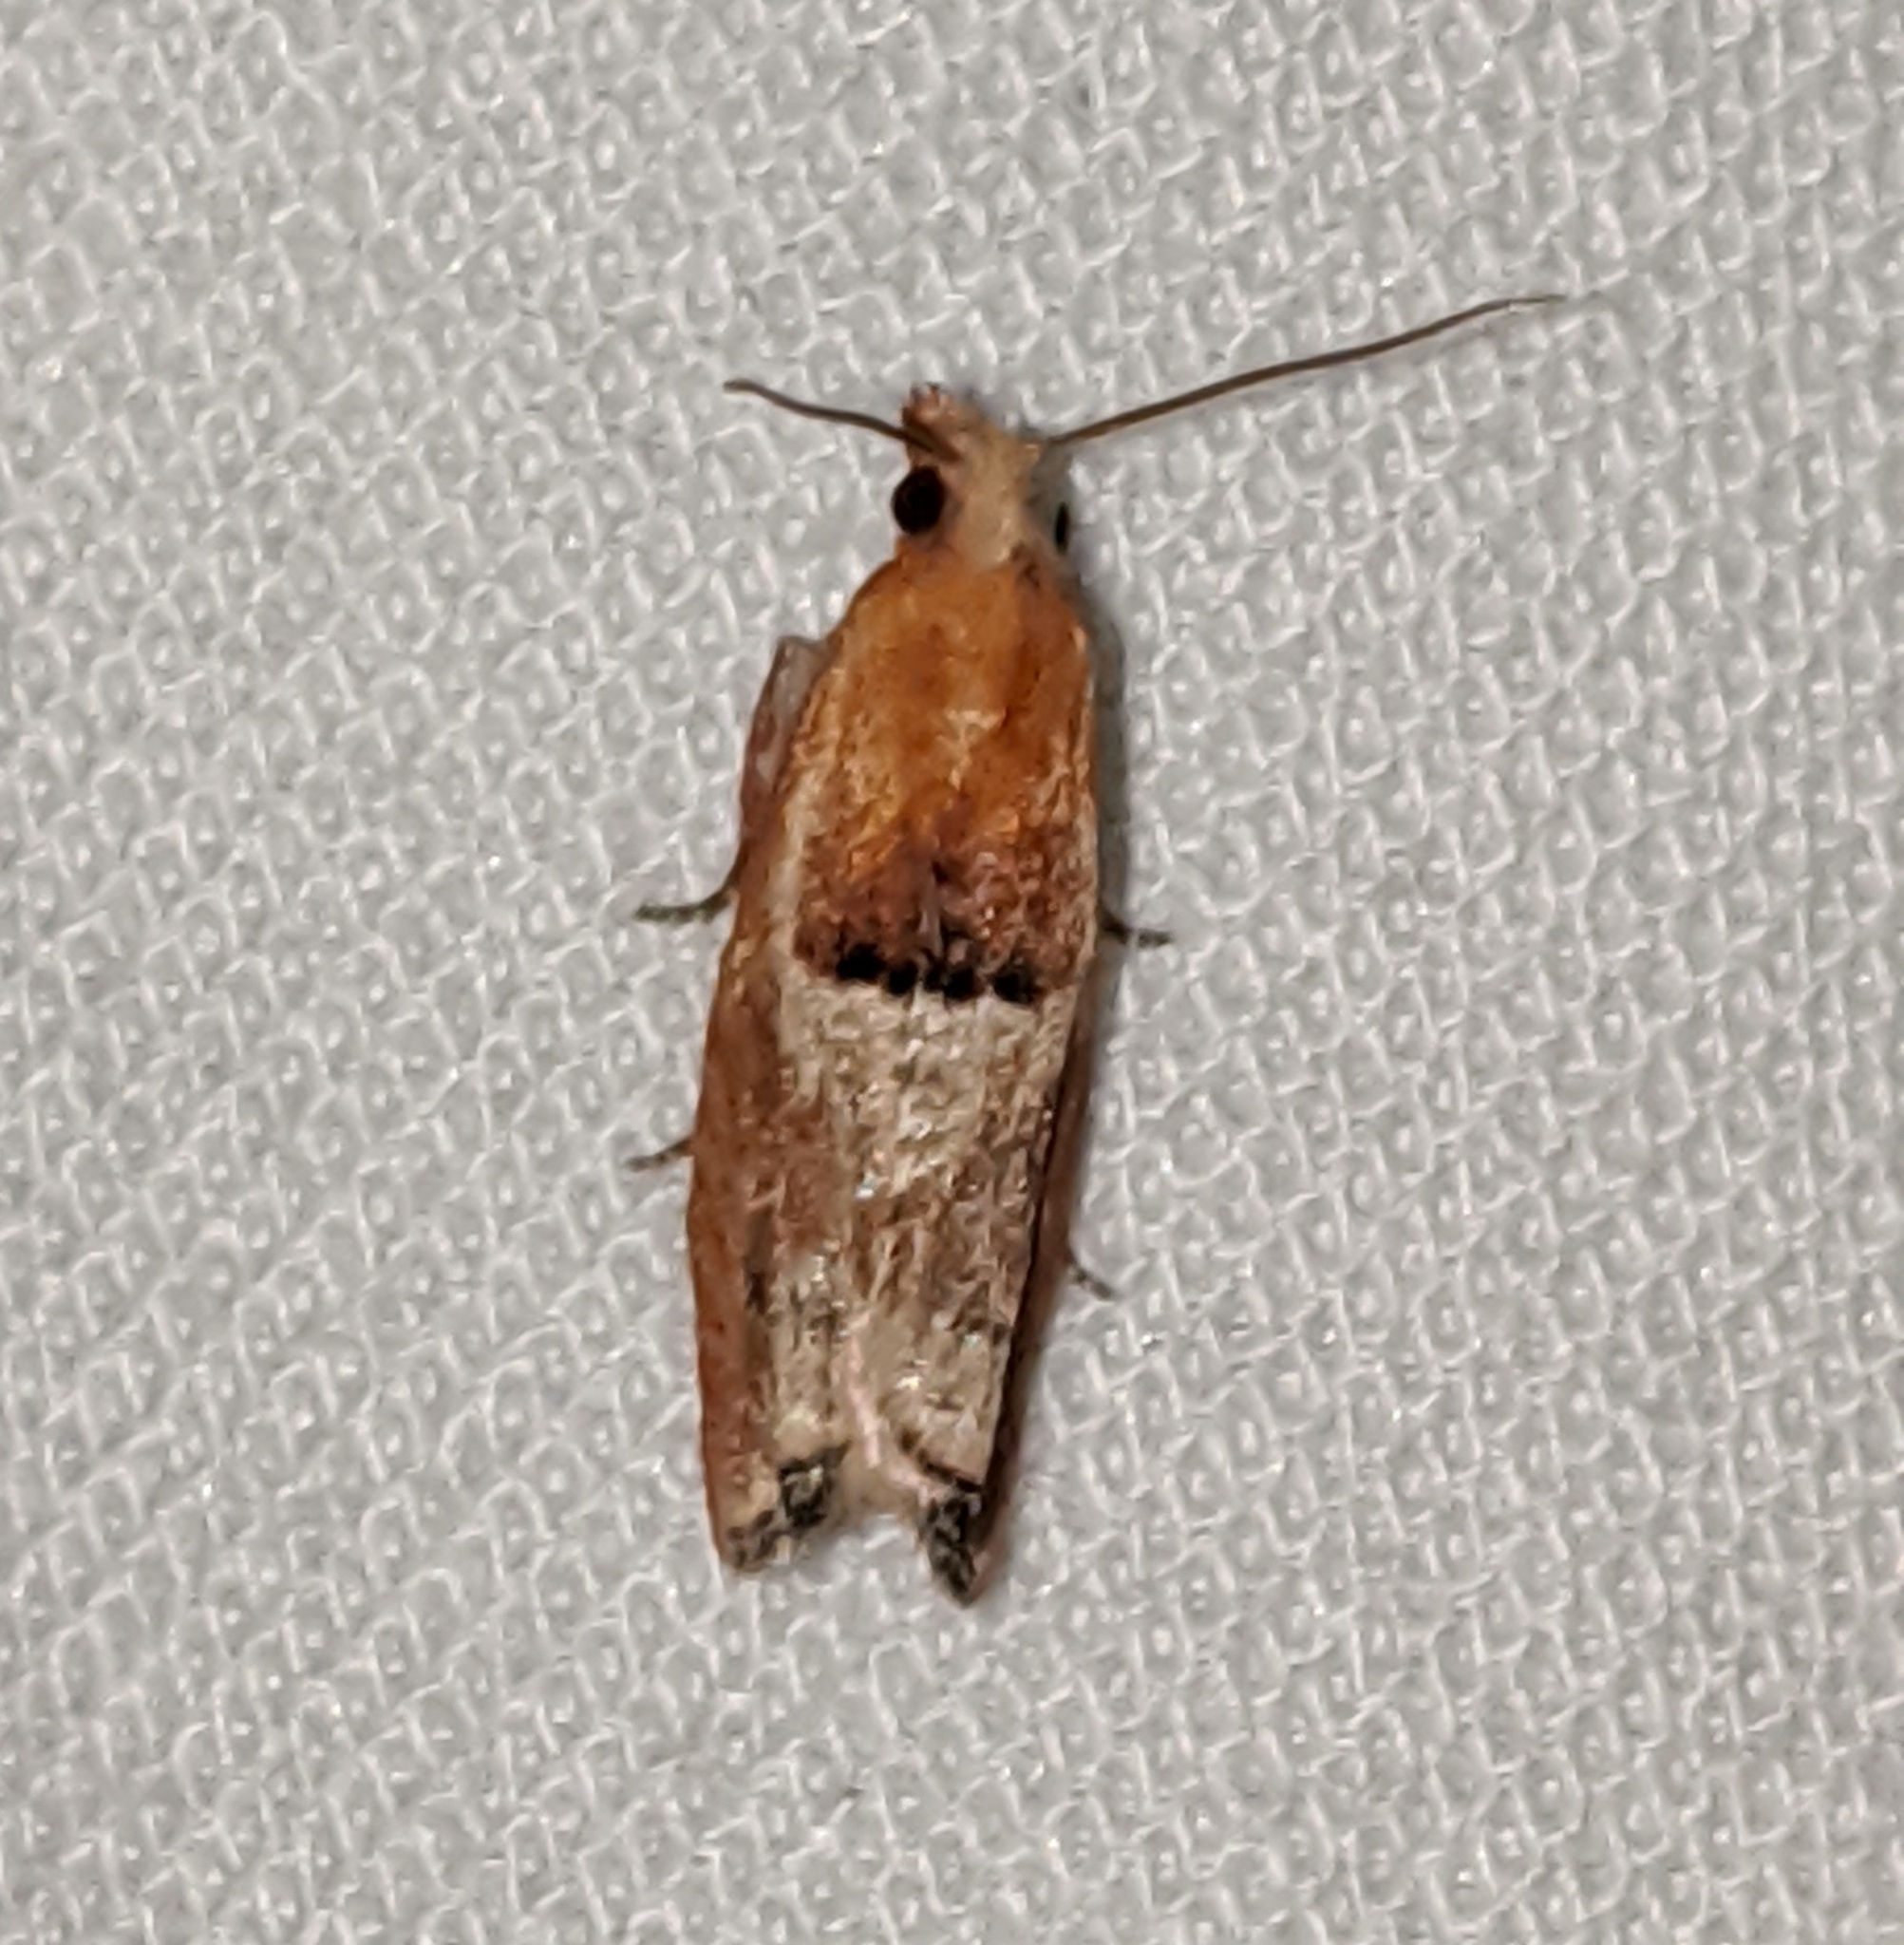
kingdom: Animalia
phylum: Arthropoda
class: Insecta
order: Lepidoptera
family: Tortricidae
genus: Epinotia
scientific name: Epinotia johnsonana
